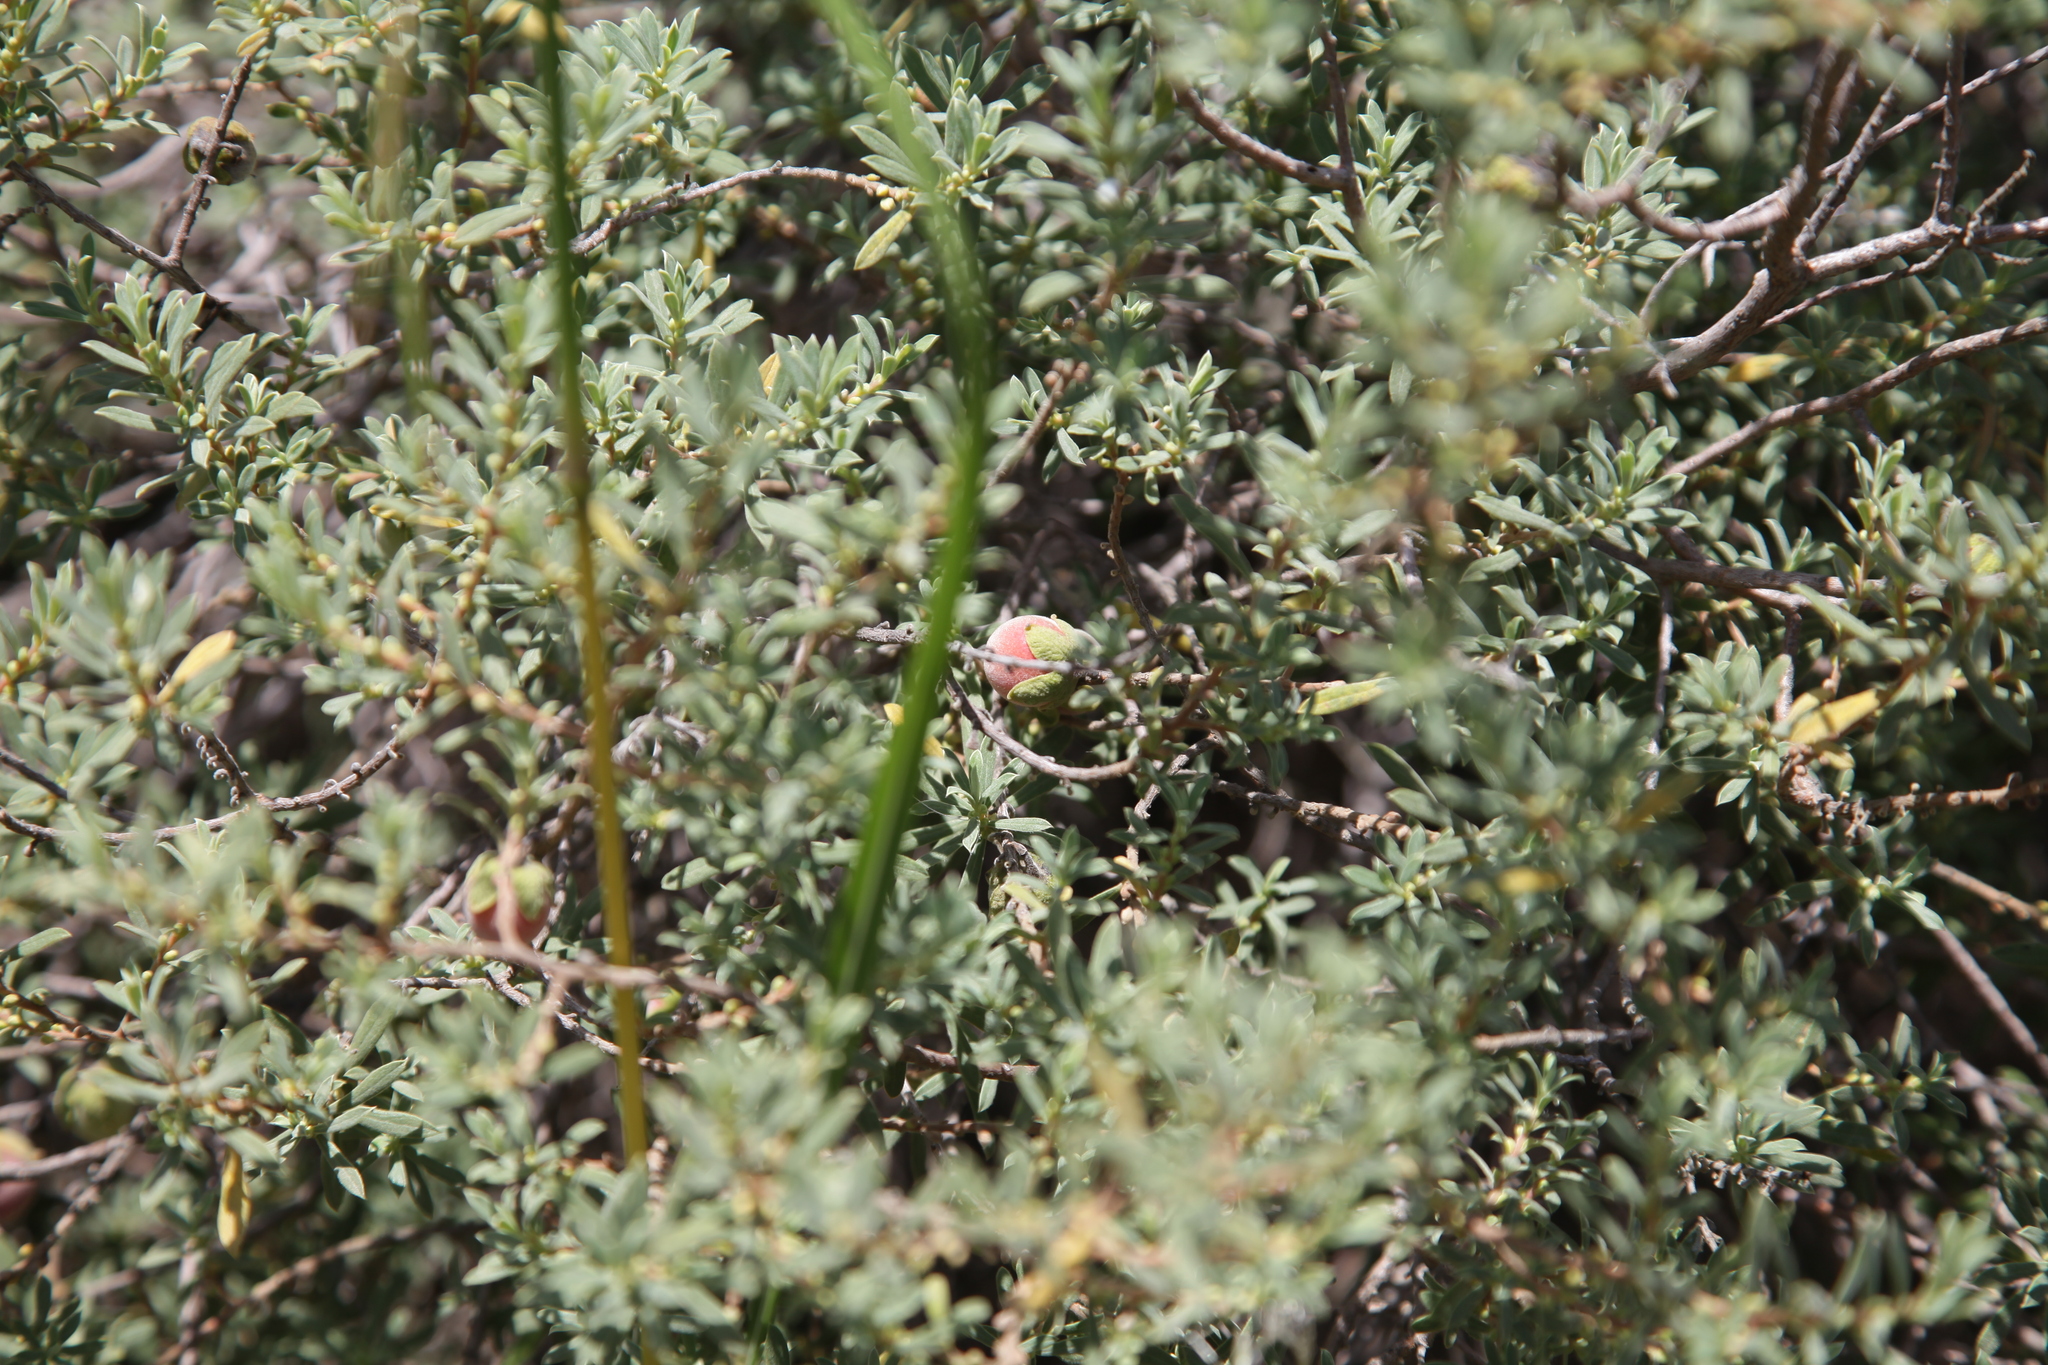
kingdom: Plantae
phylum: Tracheophyta
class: Magnoliopsida
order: Ericales
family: Ebenaceae
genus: Diospyros
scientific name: Diospyros pubescens
